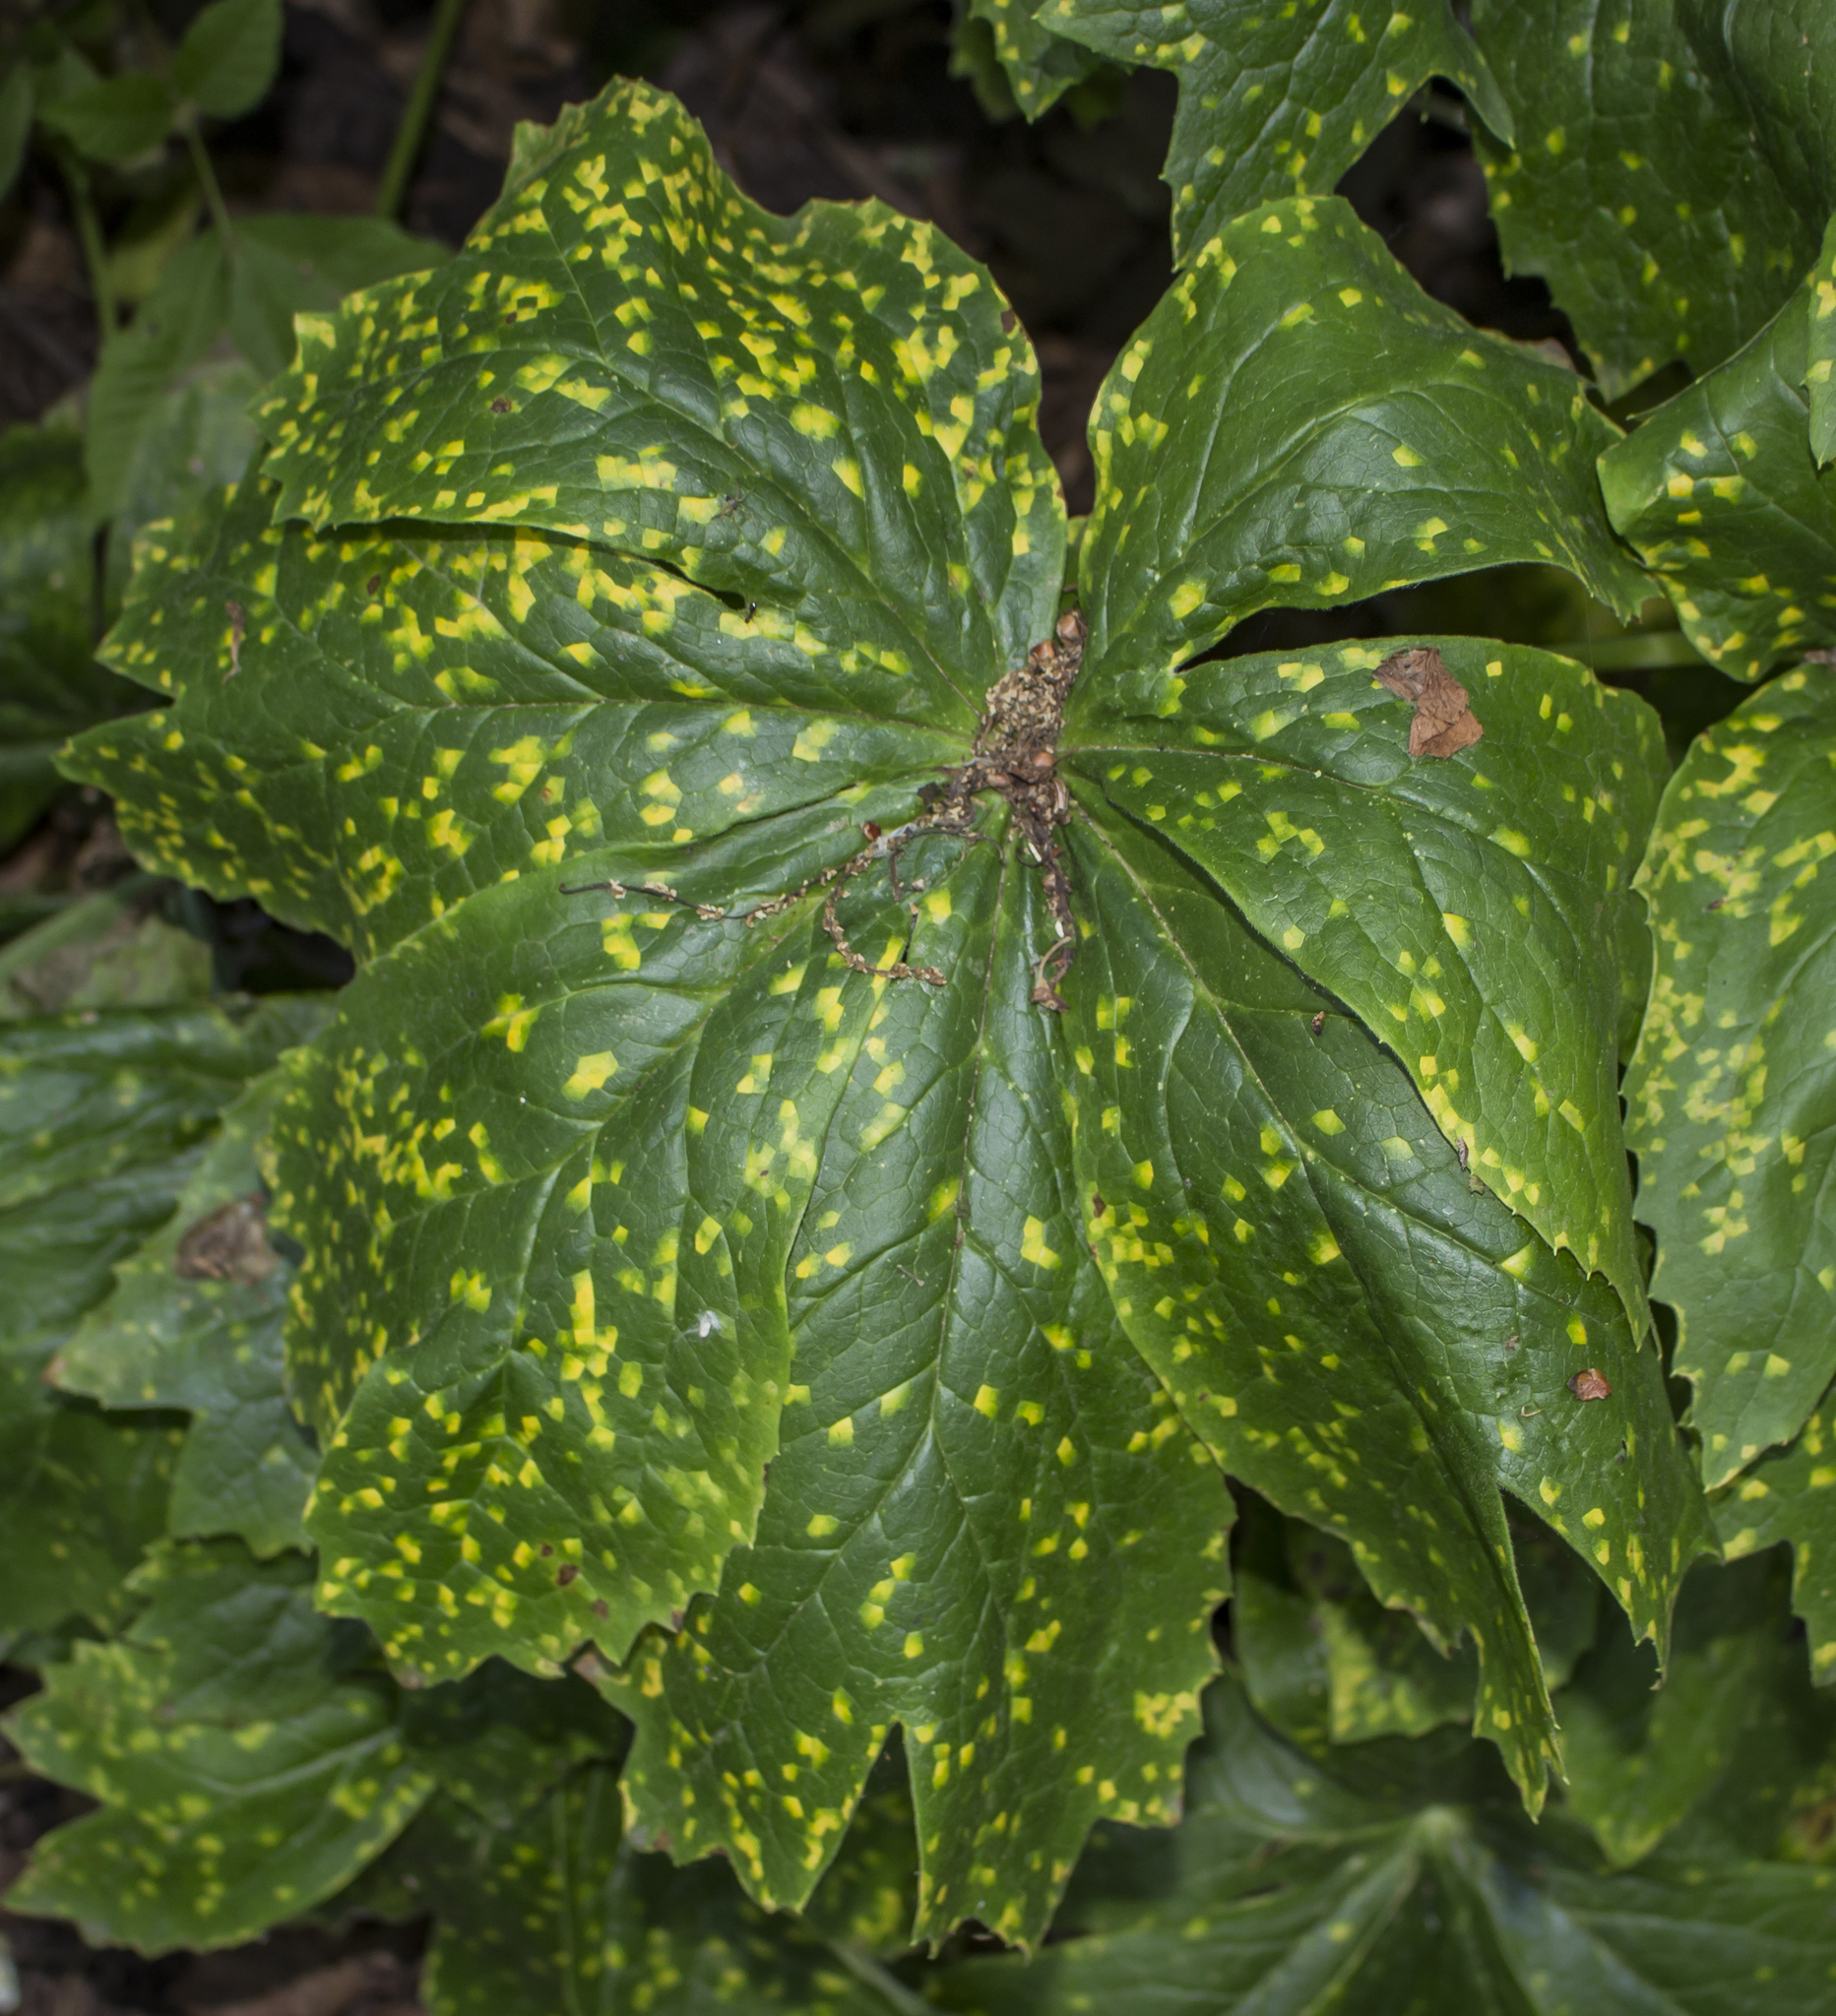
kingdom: Fungi
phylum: Basidiomycota
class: Pucciniomycetes
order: Pucciniales
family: Pucciniaceae
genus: Puccinia
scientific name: Puccinia podophylli
